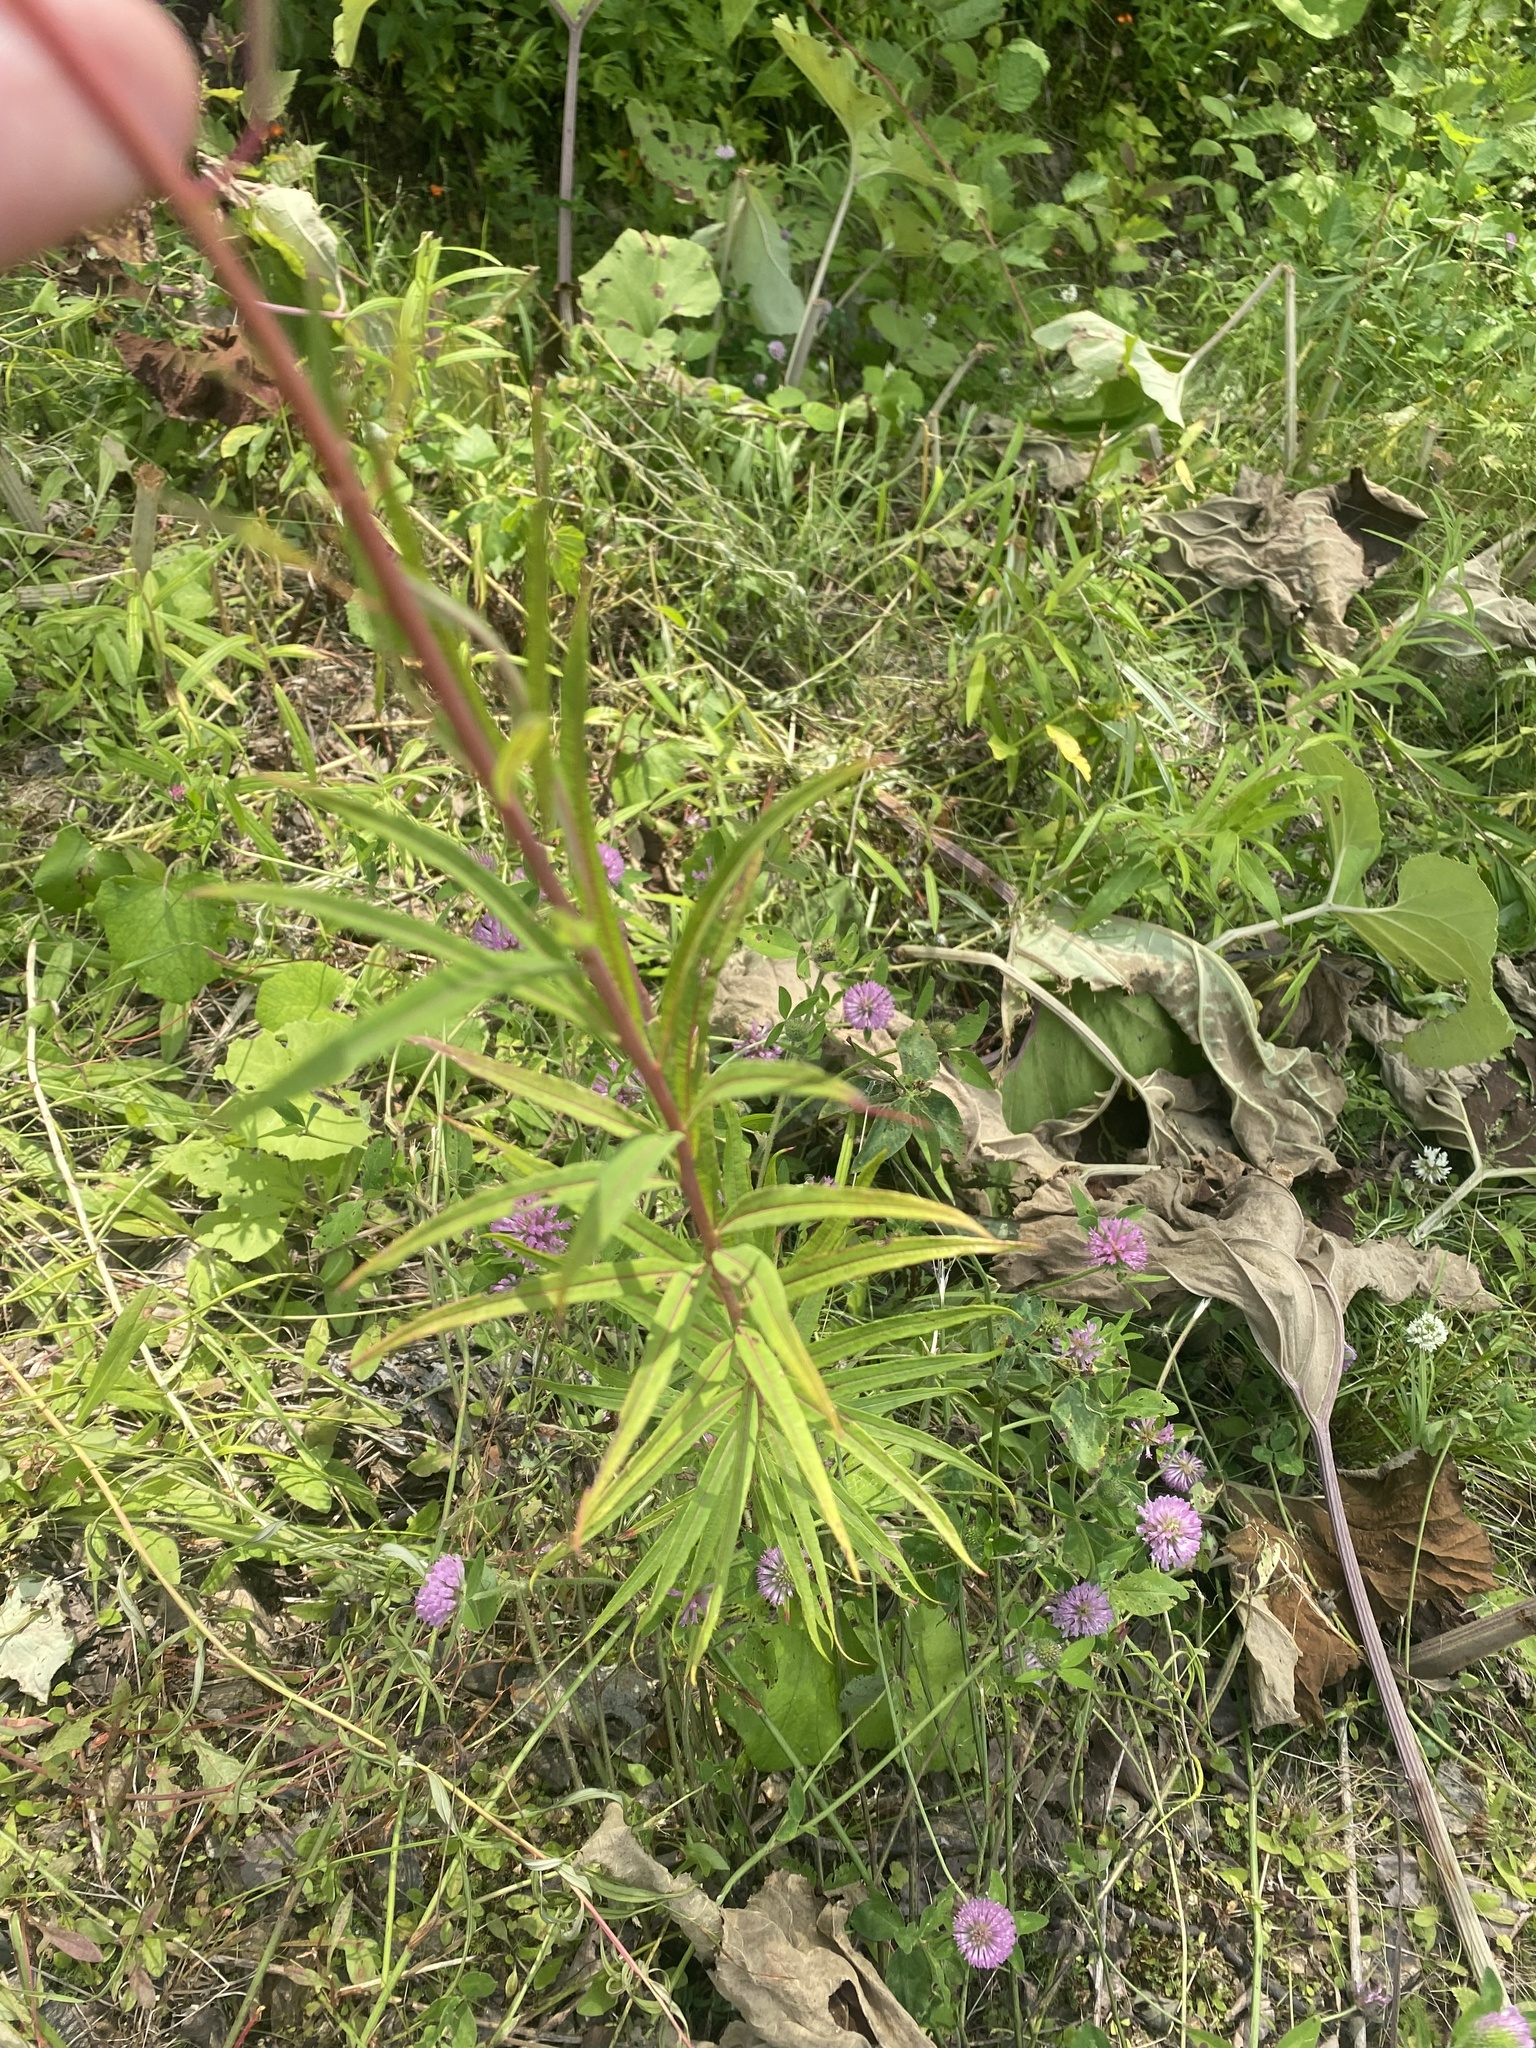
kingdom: Plantae
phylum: Tracheophyta
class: Magnoliopsida
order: Myrtales
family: Onagraceae
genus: Chamaenerion
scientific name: Chamaenerion angustifolium
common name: Fireweed
